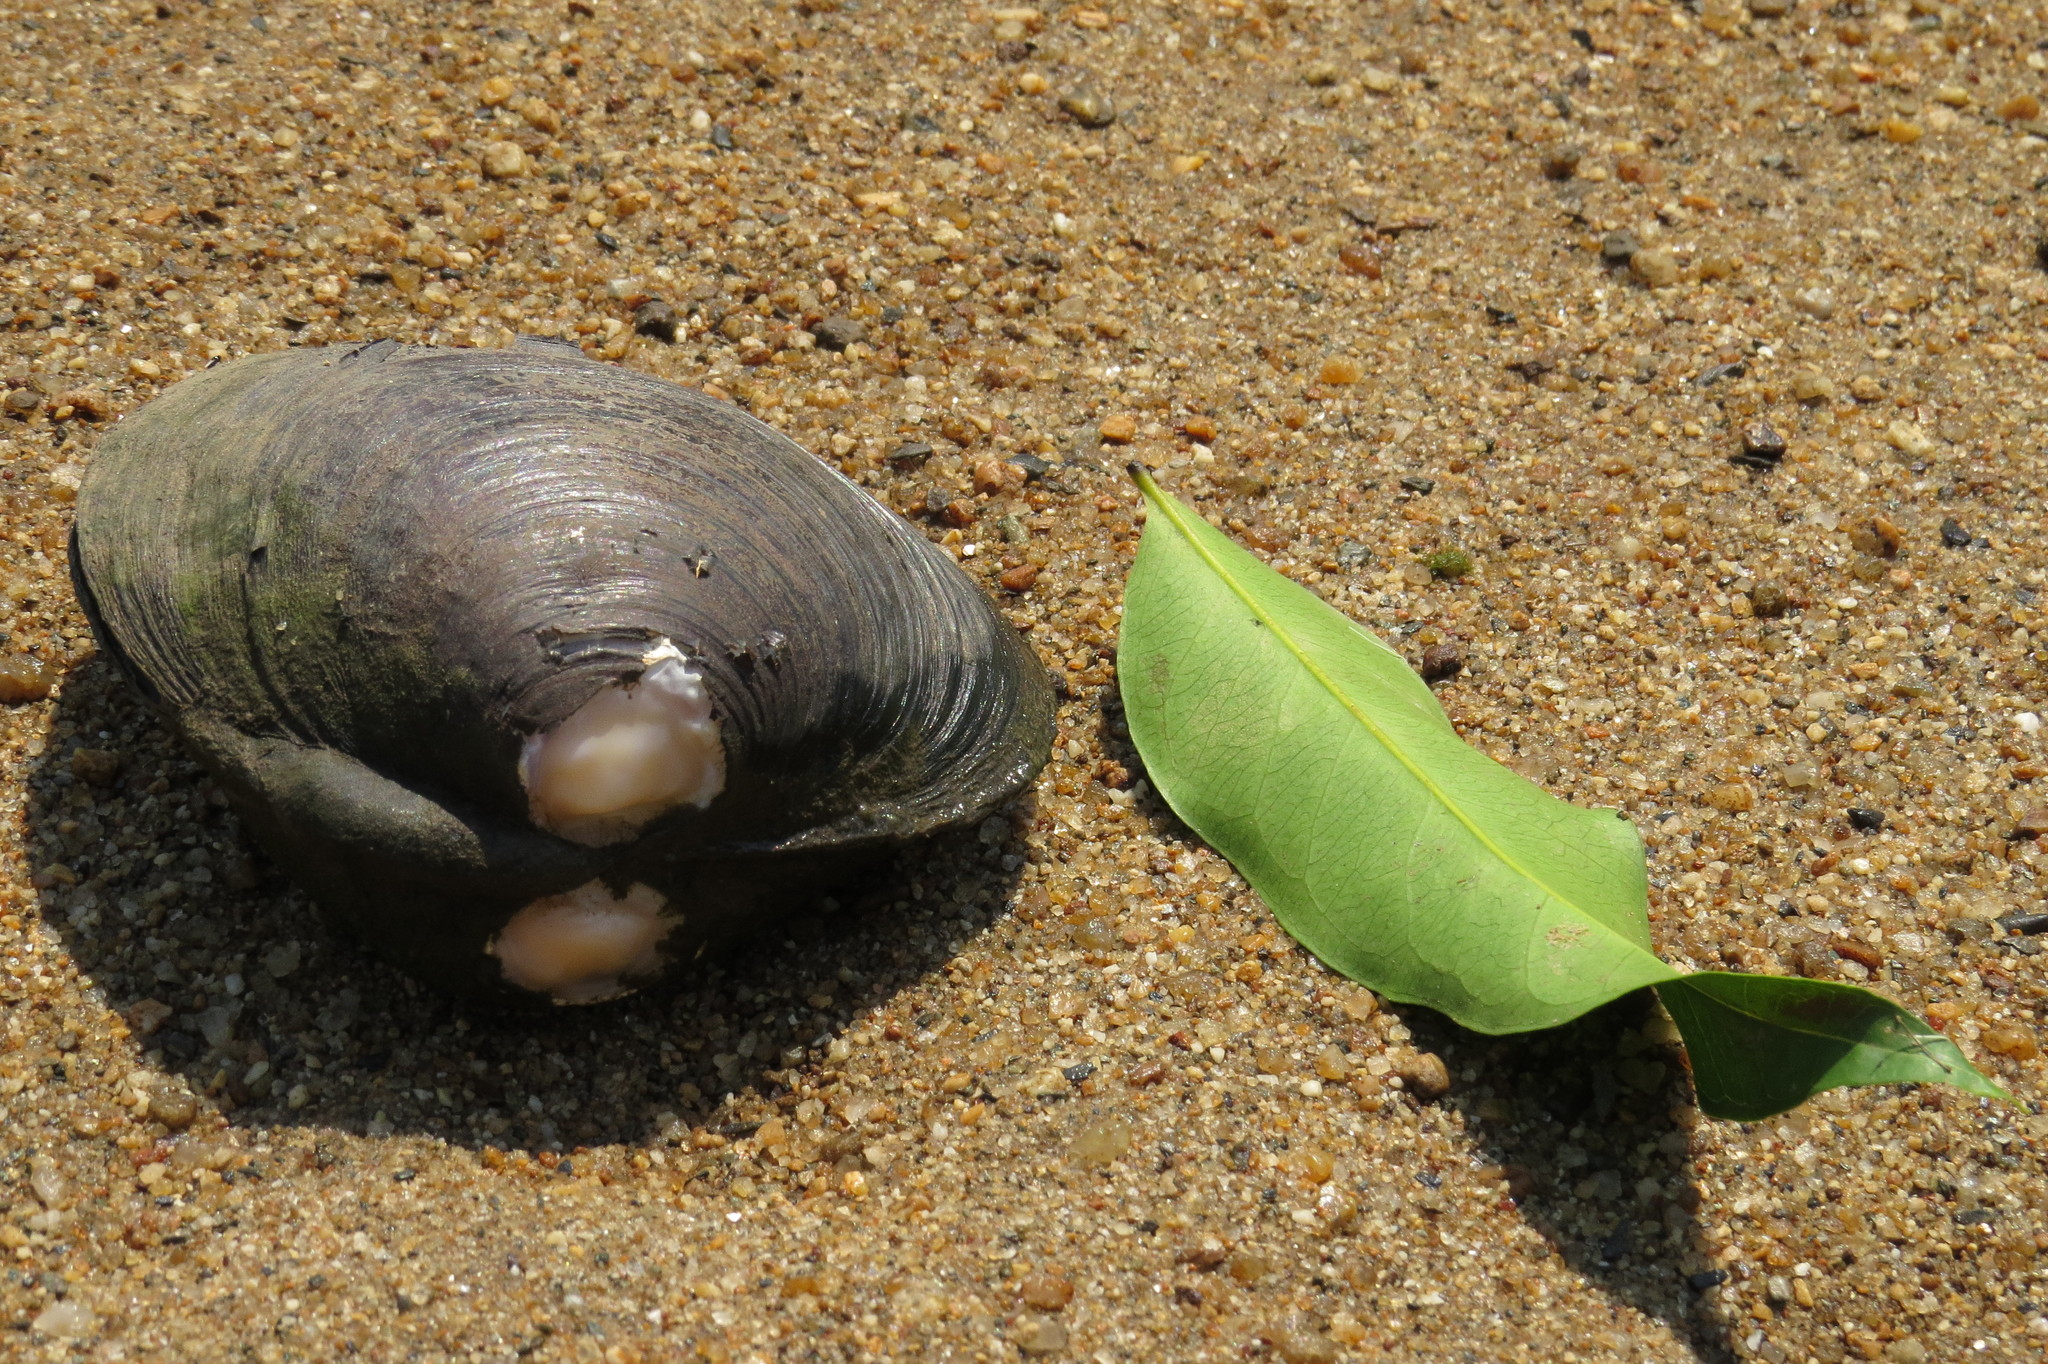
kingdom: Animalia
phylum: Mollusca
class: Bivalvia
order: Venerida
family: Cyrenidae
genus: Batissa
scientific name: Batissa violacea
